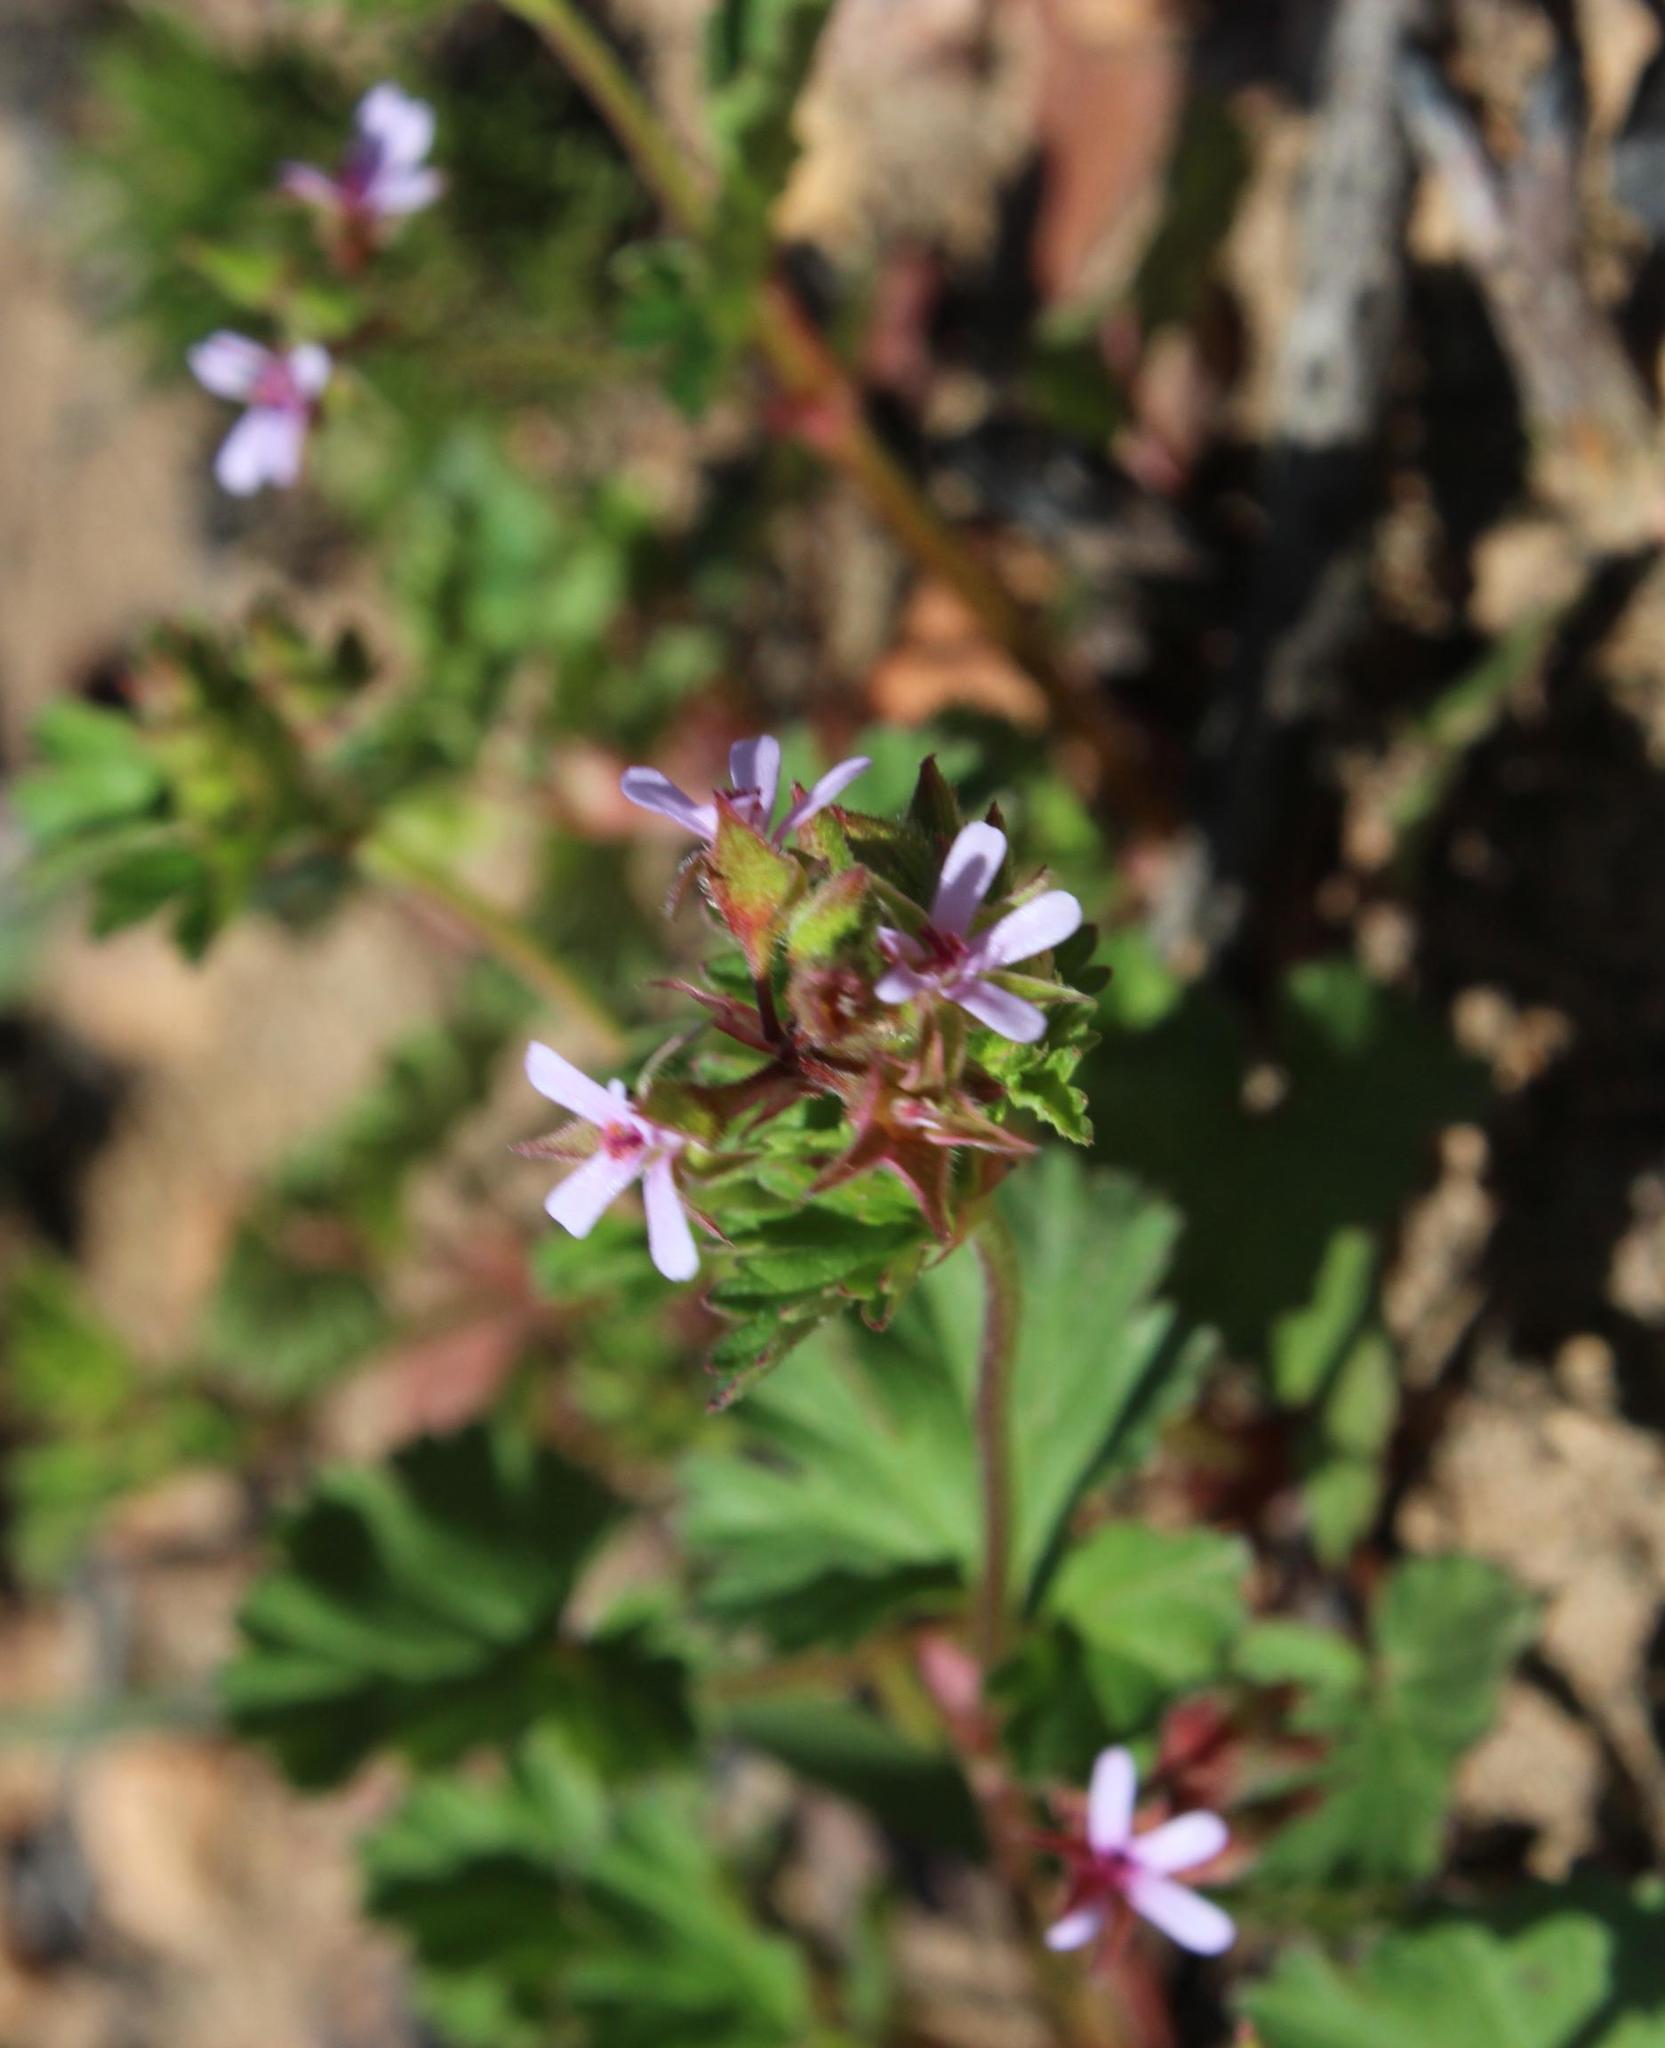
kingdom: Plantae
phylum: Tracheophyta
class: Magnoliopsida
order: Geraniales
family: Geraniaceae
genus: Pelargonium
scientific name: Pelargonium grossularioides
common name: Gooseberry geranium
